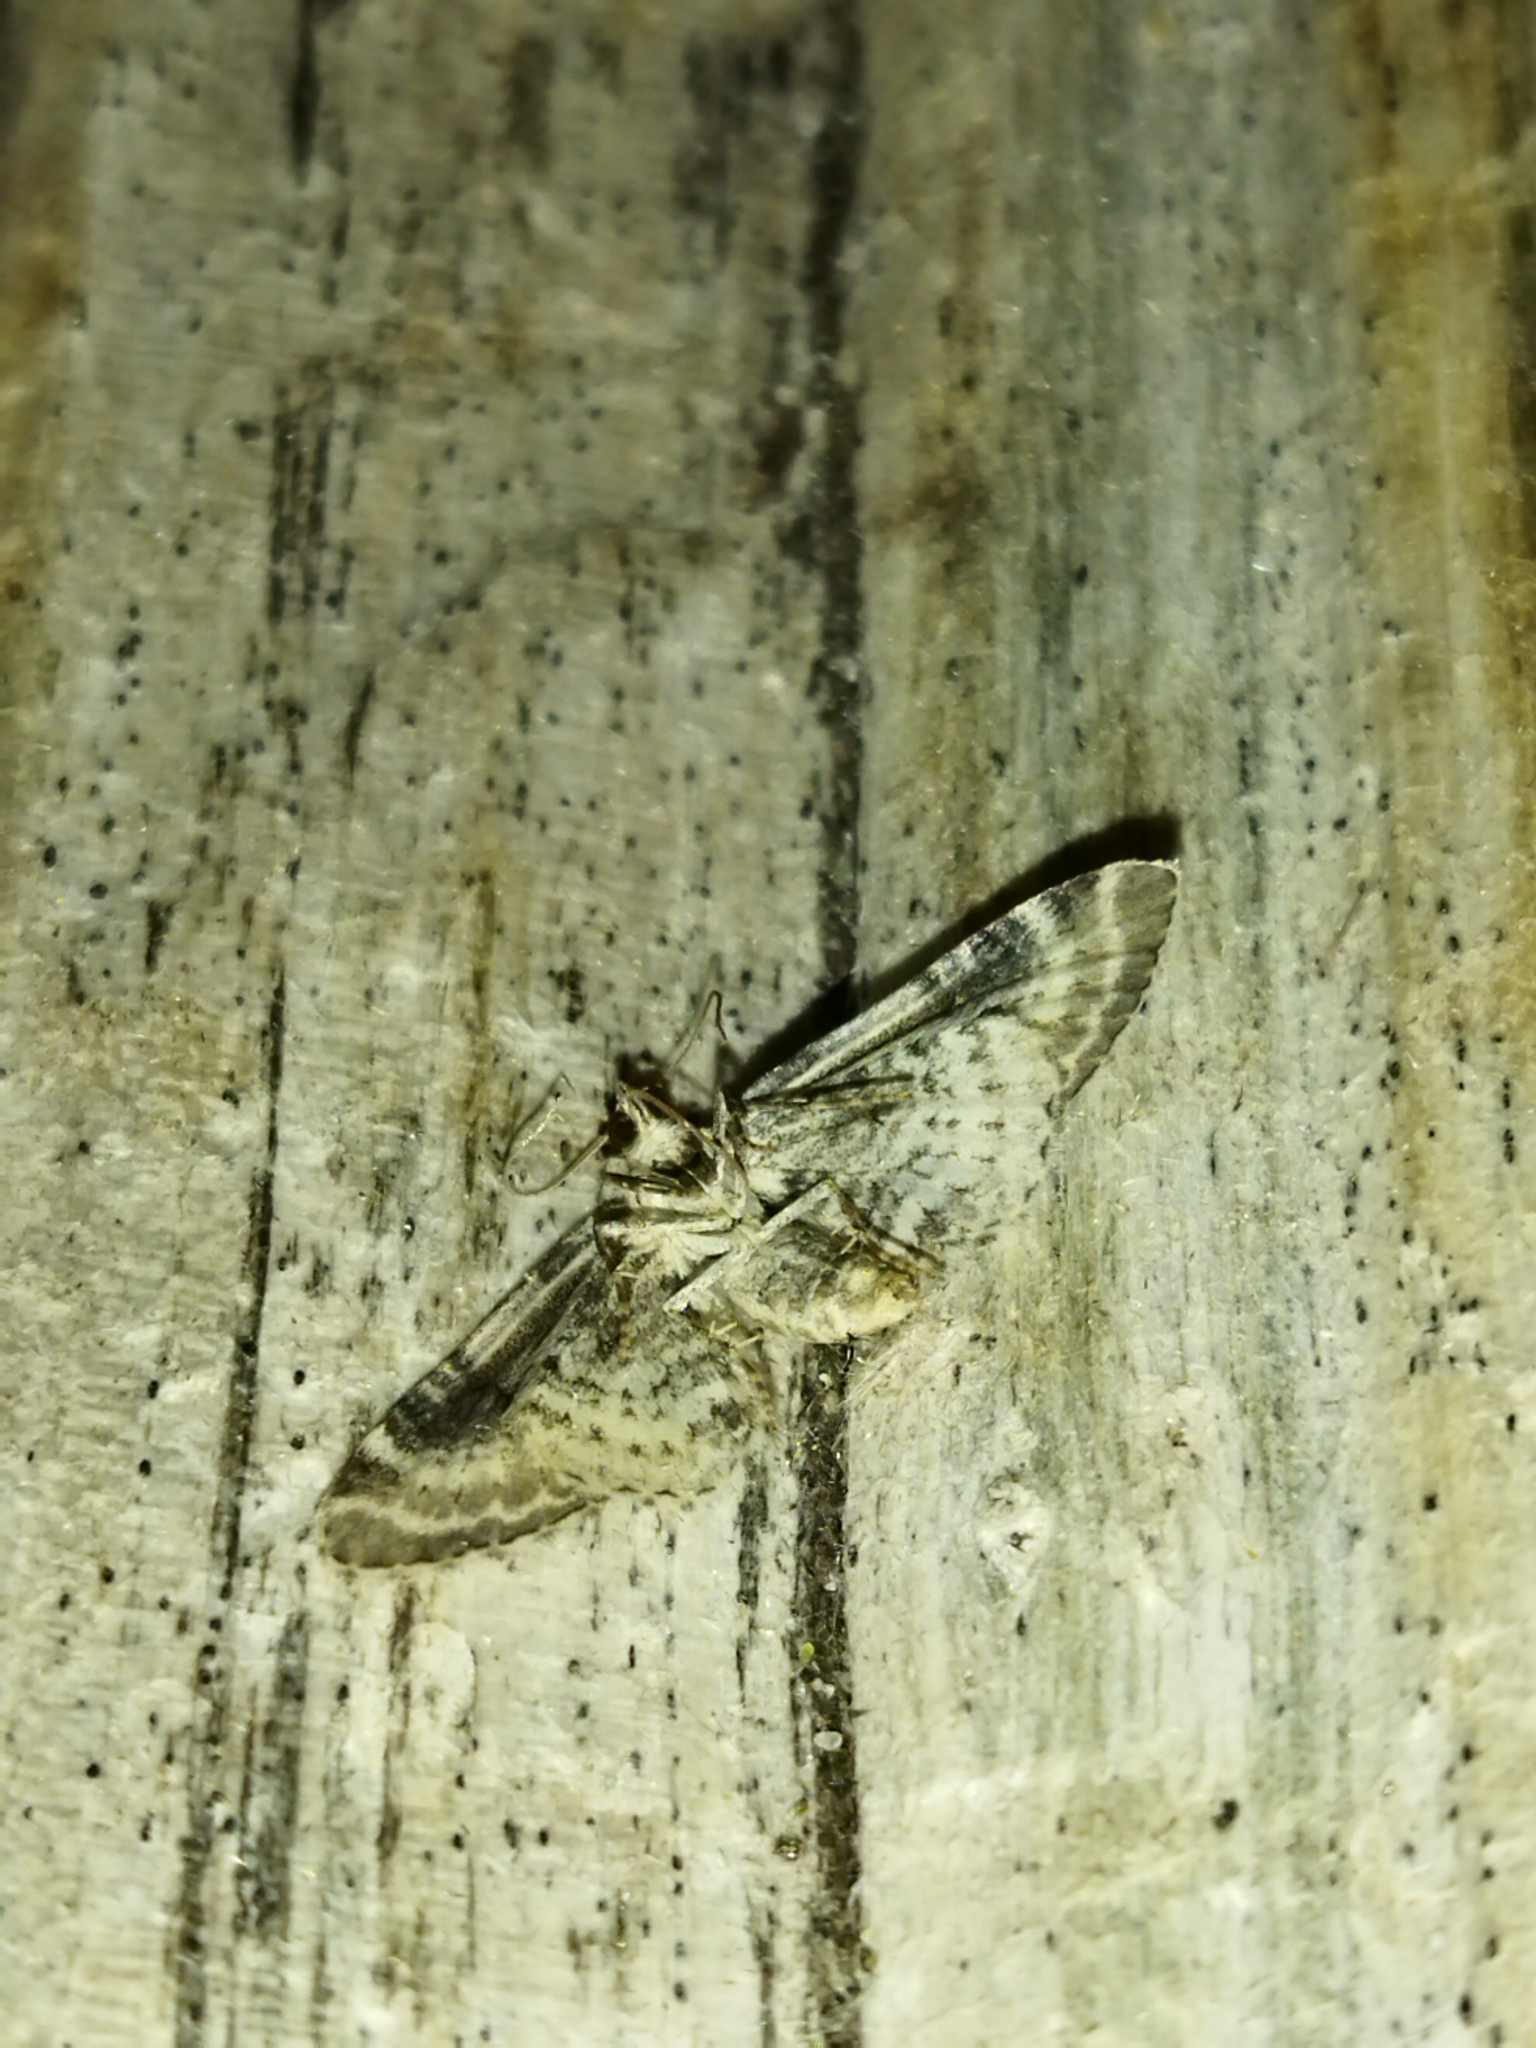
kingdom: Animalia
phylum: Arthropoda
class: Insecta
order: Lepidoptera
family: Geometridae
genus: Eupithecia
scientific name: Eupithecia centaureata
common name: Lime-speck pug
